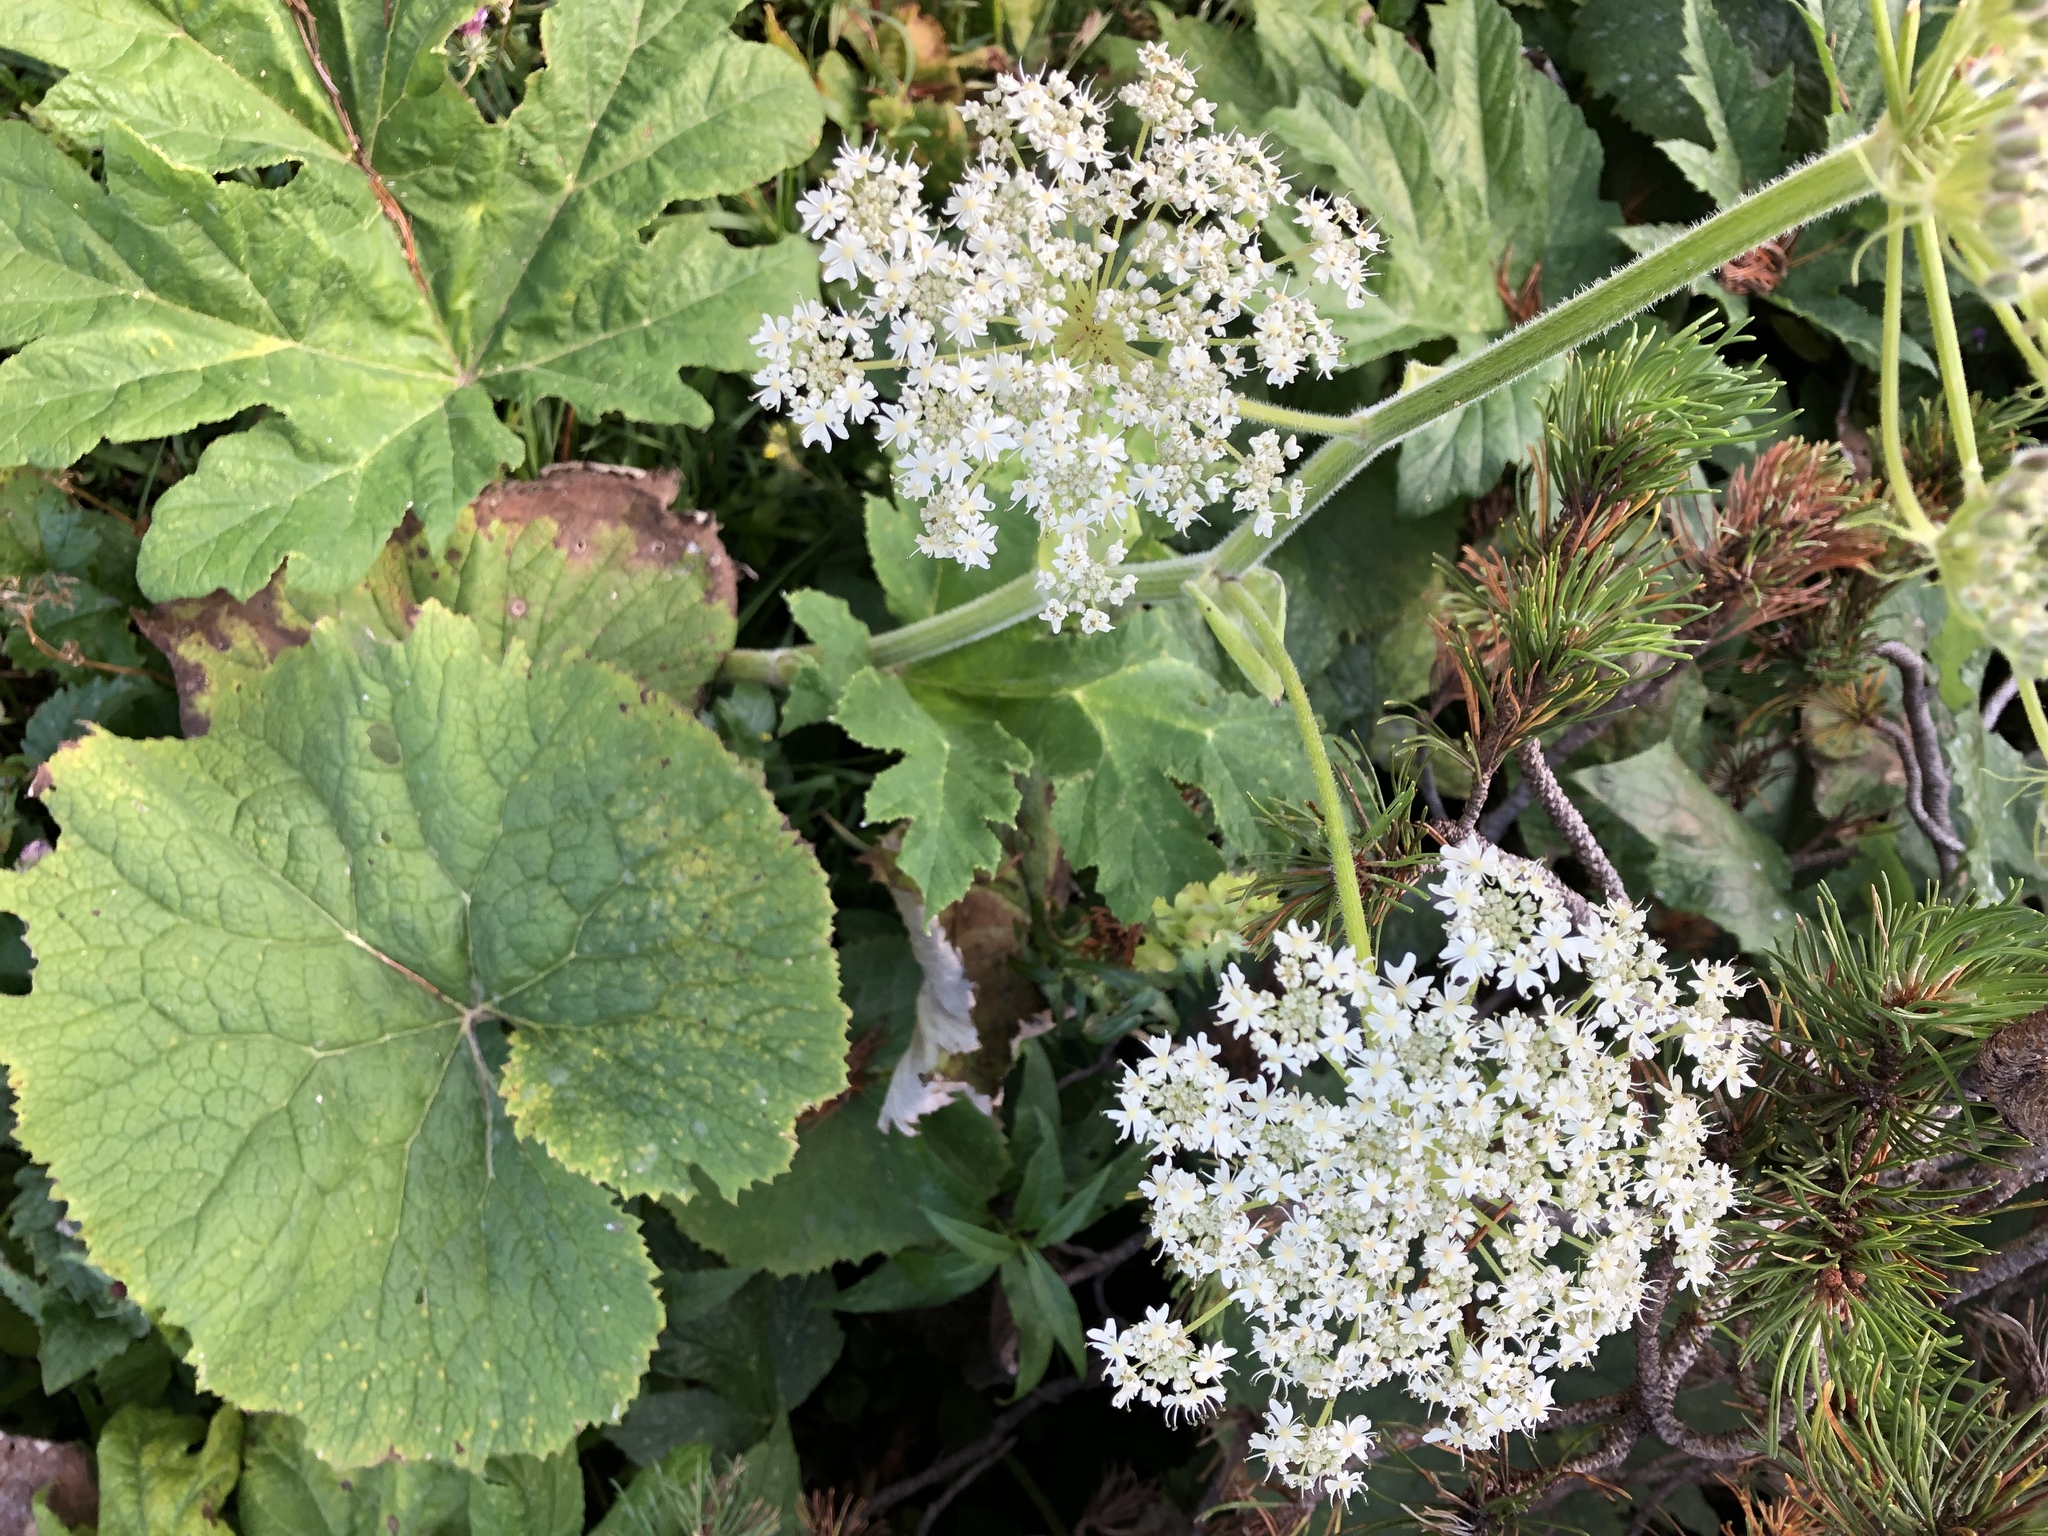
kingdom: Plantae
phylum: Tracheophyta
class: Magnoliopsida
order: Apiales
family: Apiaceae
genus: Heracleum
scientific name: Heracleum sphondylium
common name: Hogweed
